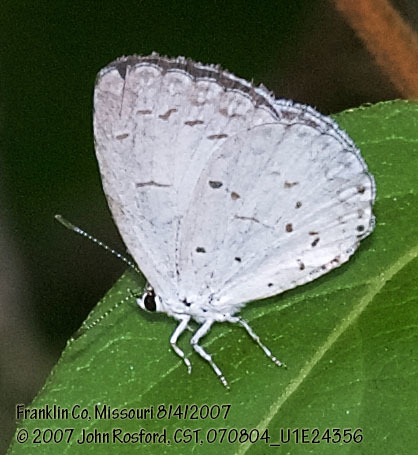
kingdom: Animalia
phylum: Arthropoda
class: Insecta
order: Lepidoptera
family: Lycaenidae
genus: Cyaniris
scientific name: Cyaniris neglecta
